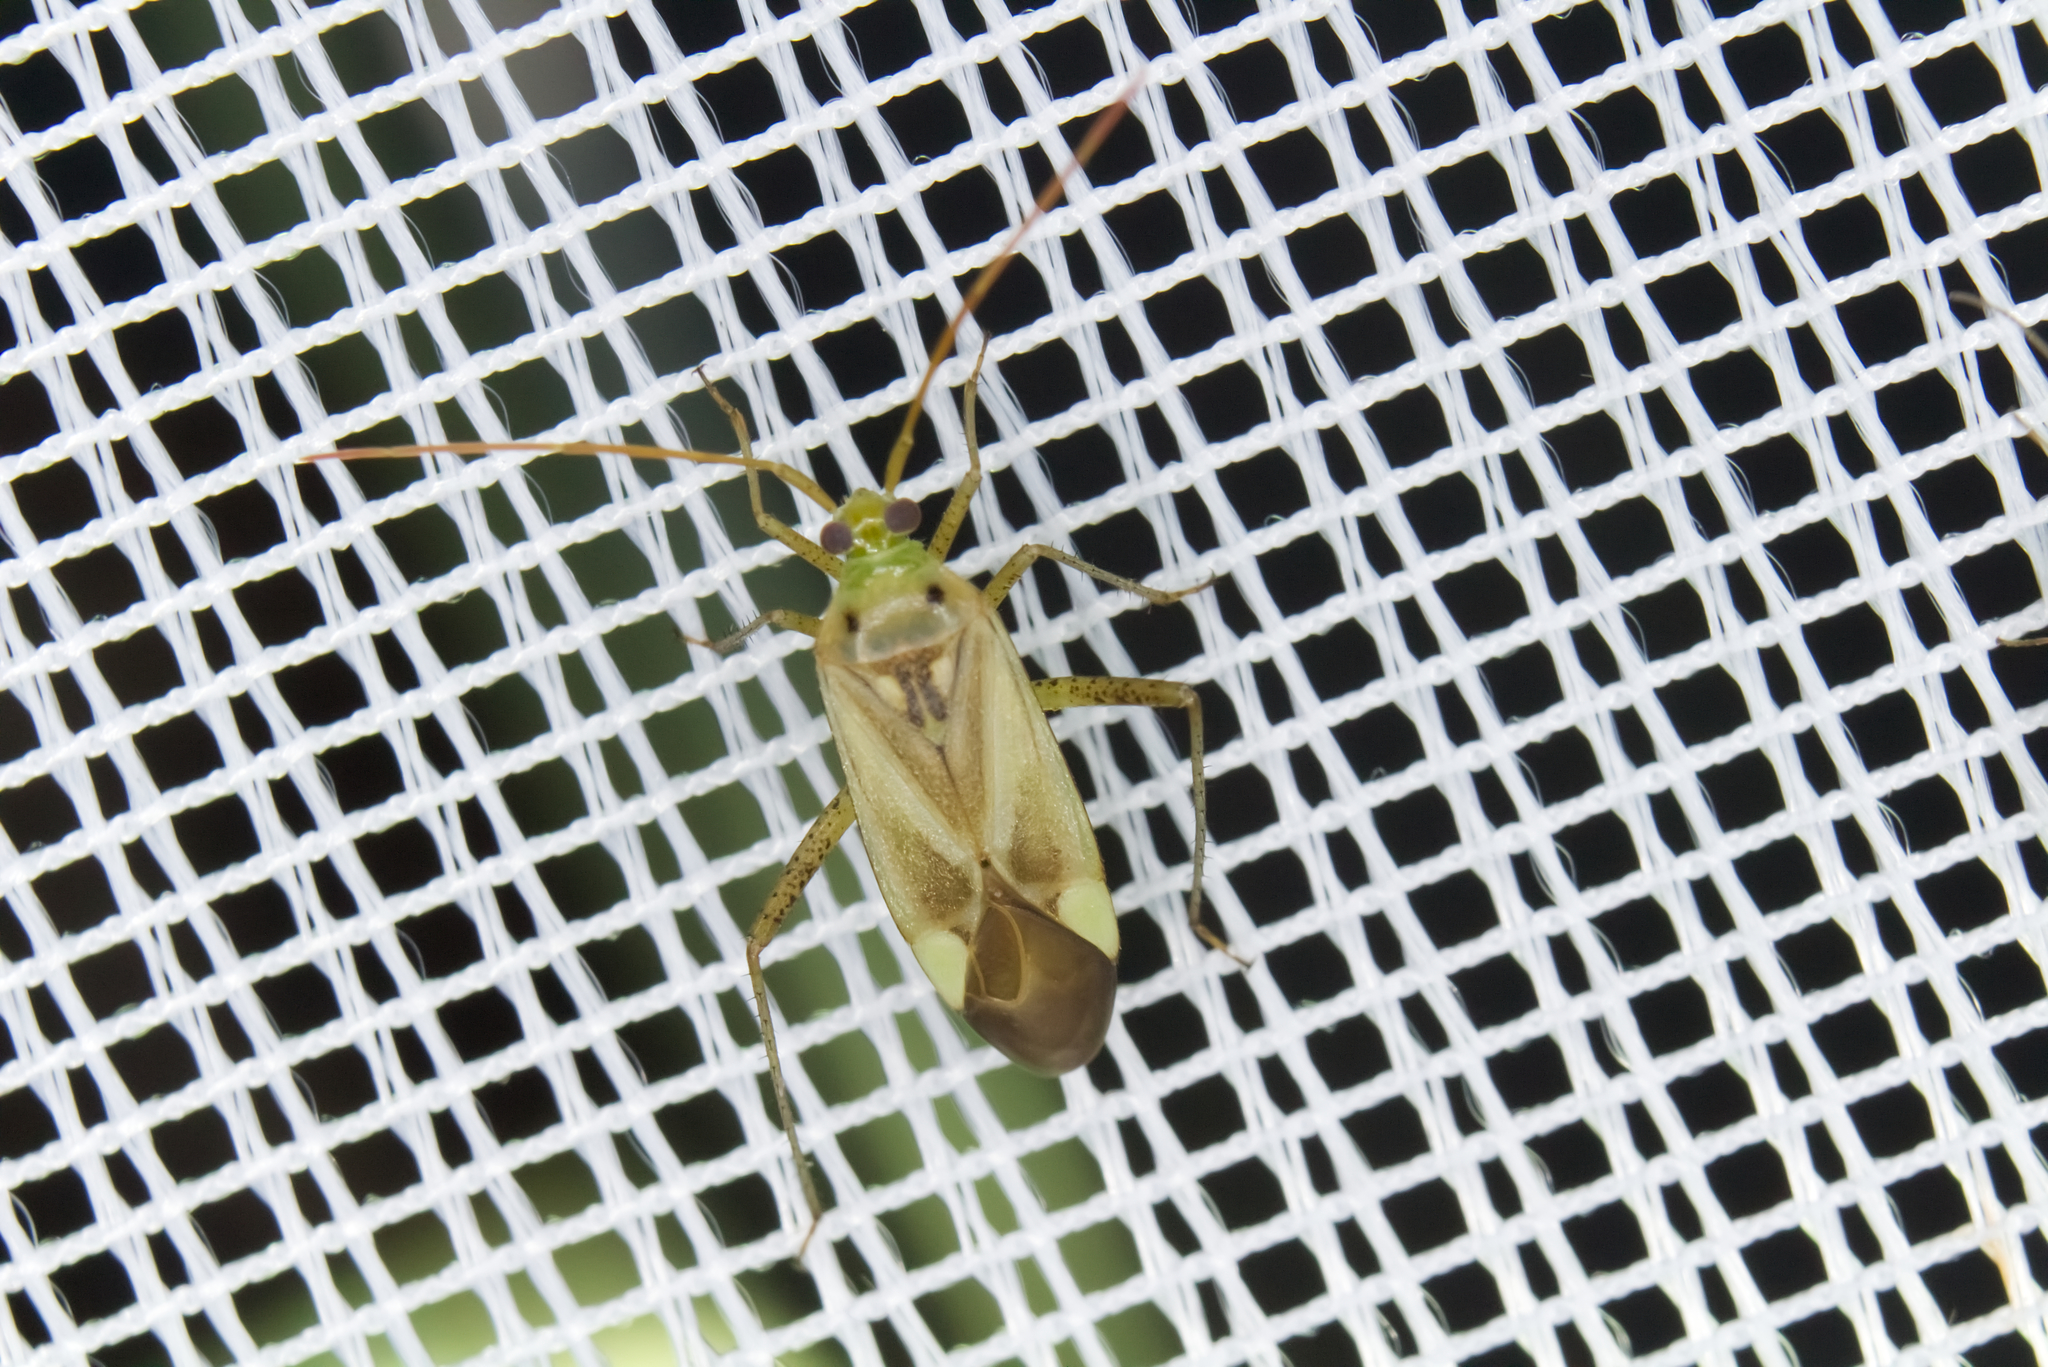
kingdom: Animalia
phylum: Arthropoda
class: Insecta
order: Hemiptera
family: Miridae
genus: Adelphocoris
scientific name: Adelphocoris lineolatus
